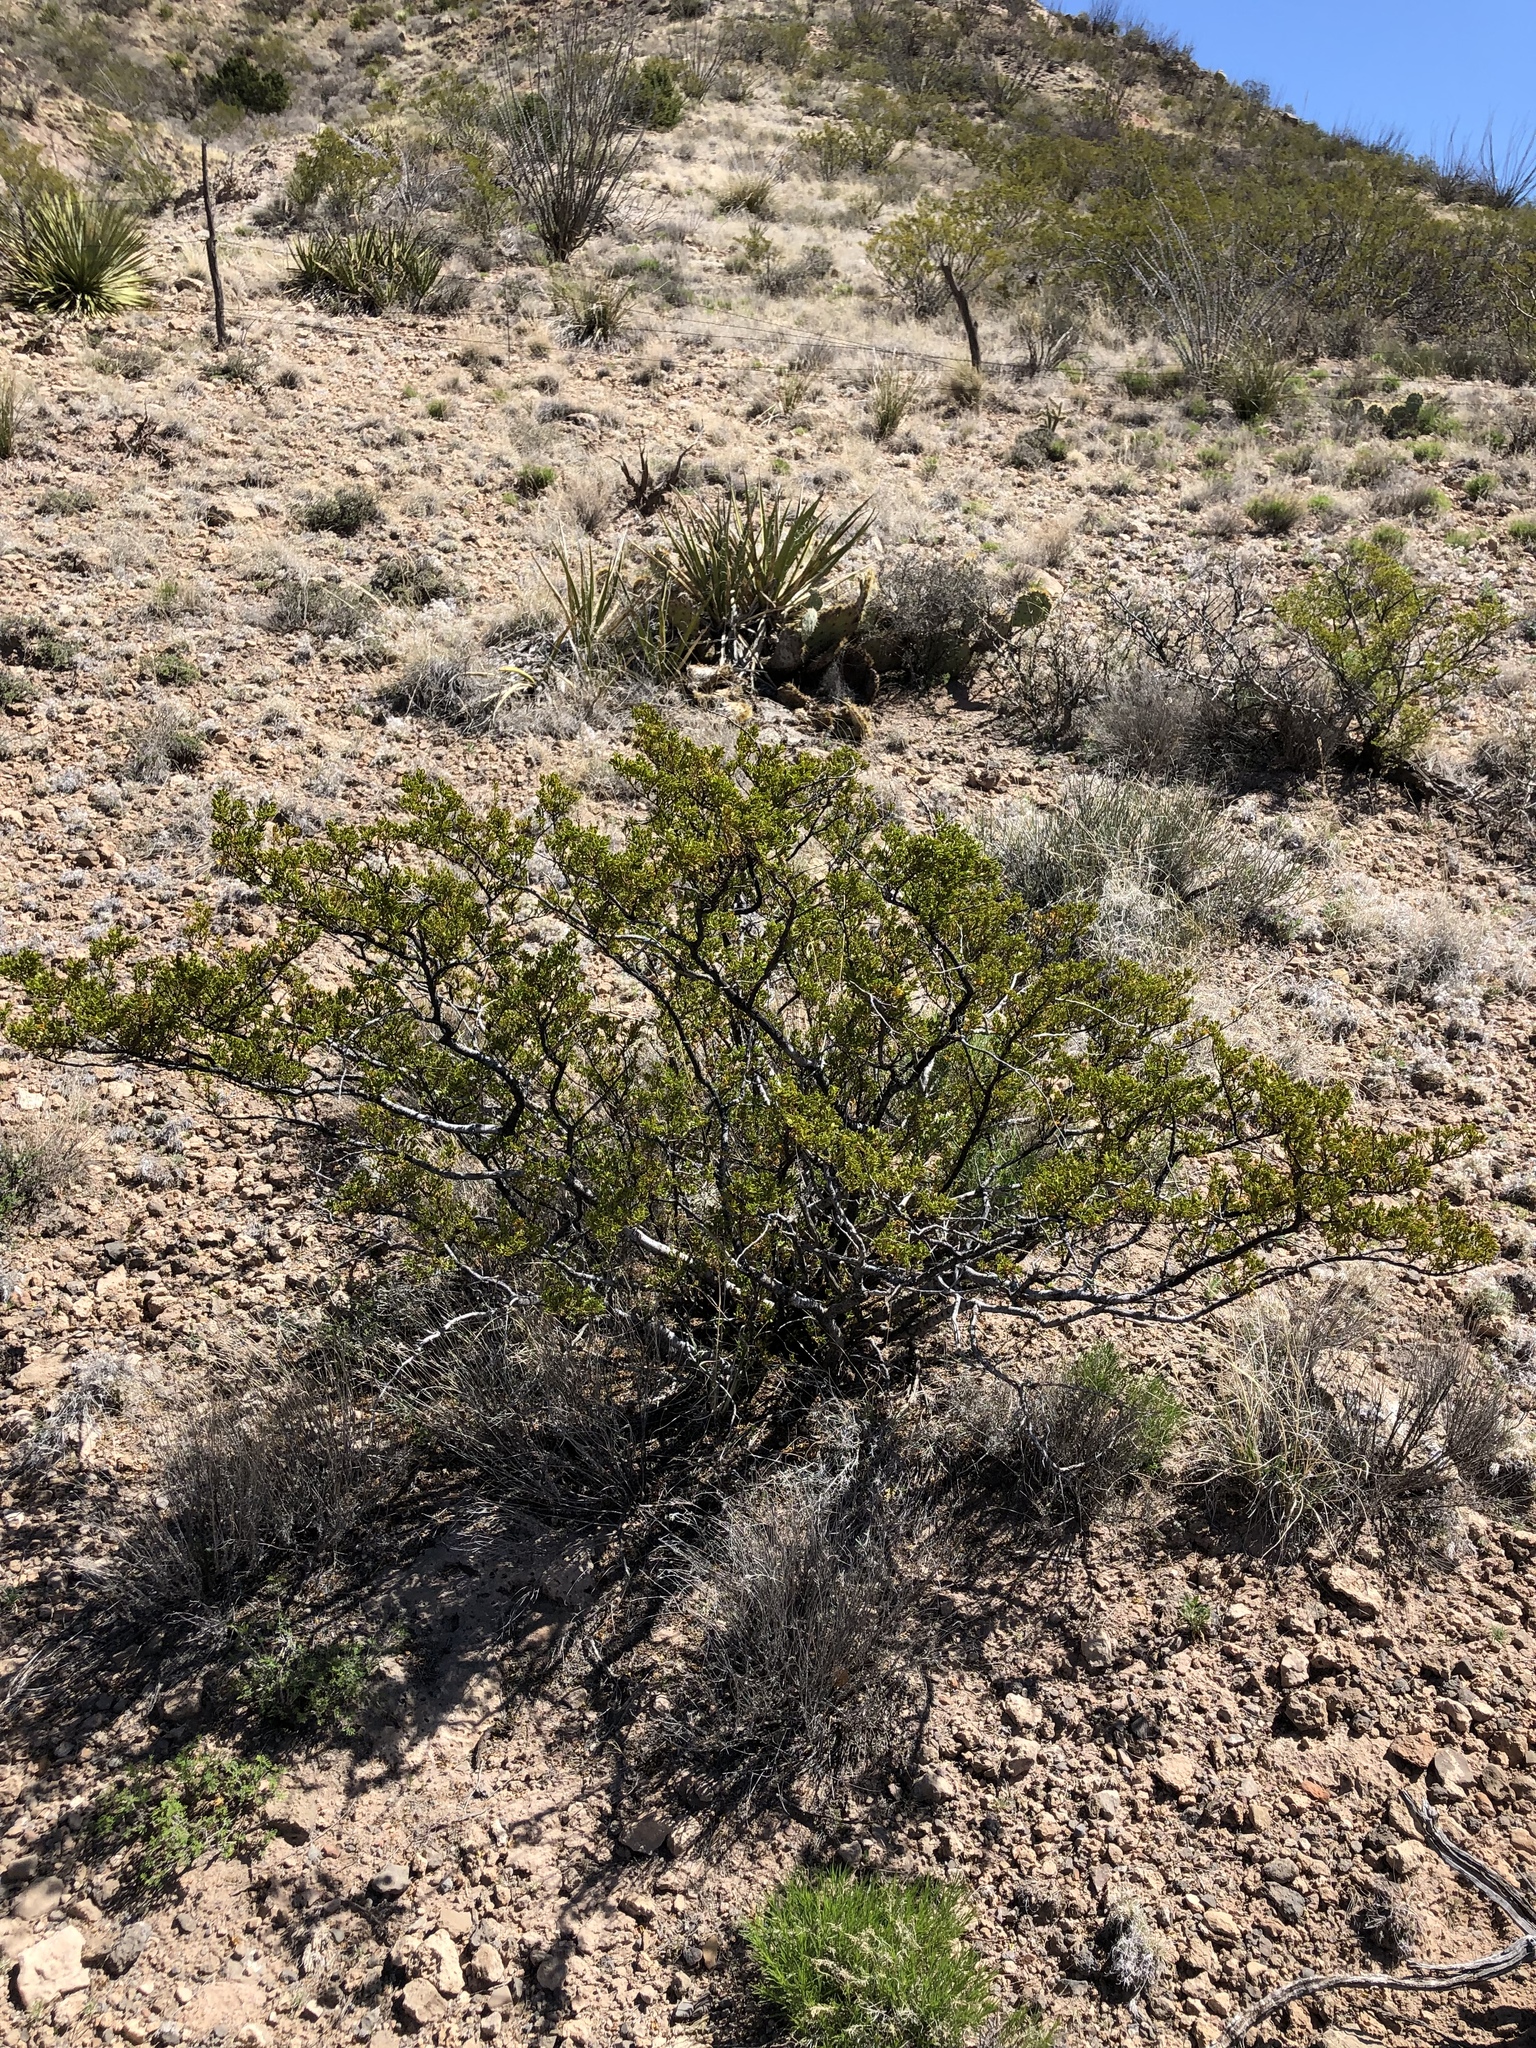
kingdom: Plantae
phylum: Tracheophyta
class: Magnoliopsida
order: Zygophyllales
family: Zygophyllaceae
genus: Larrea
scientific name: Larrea tridentata
